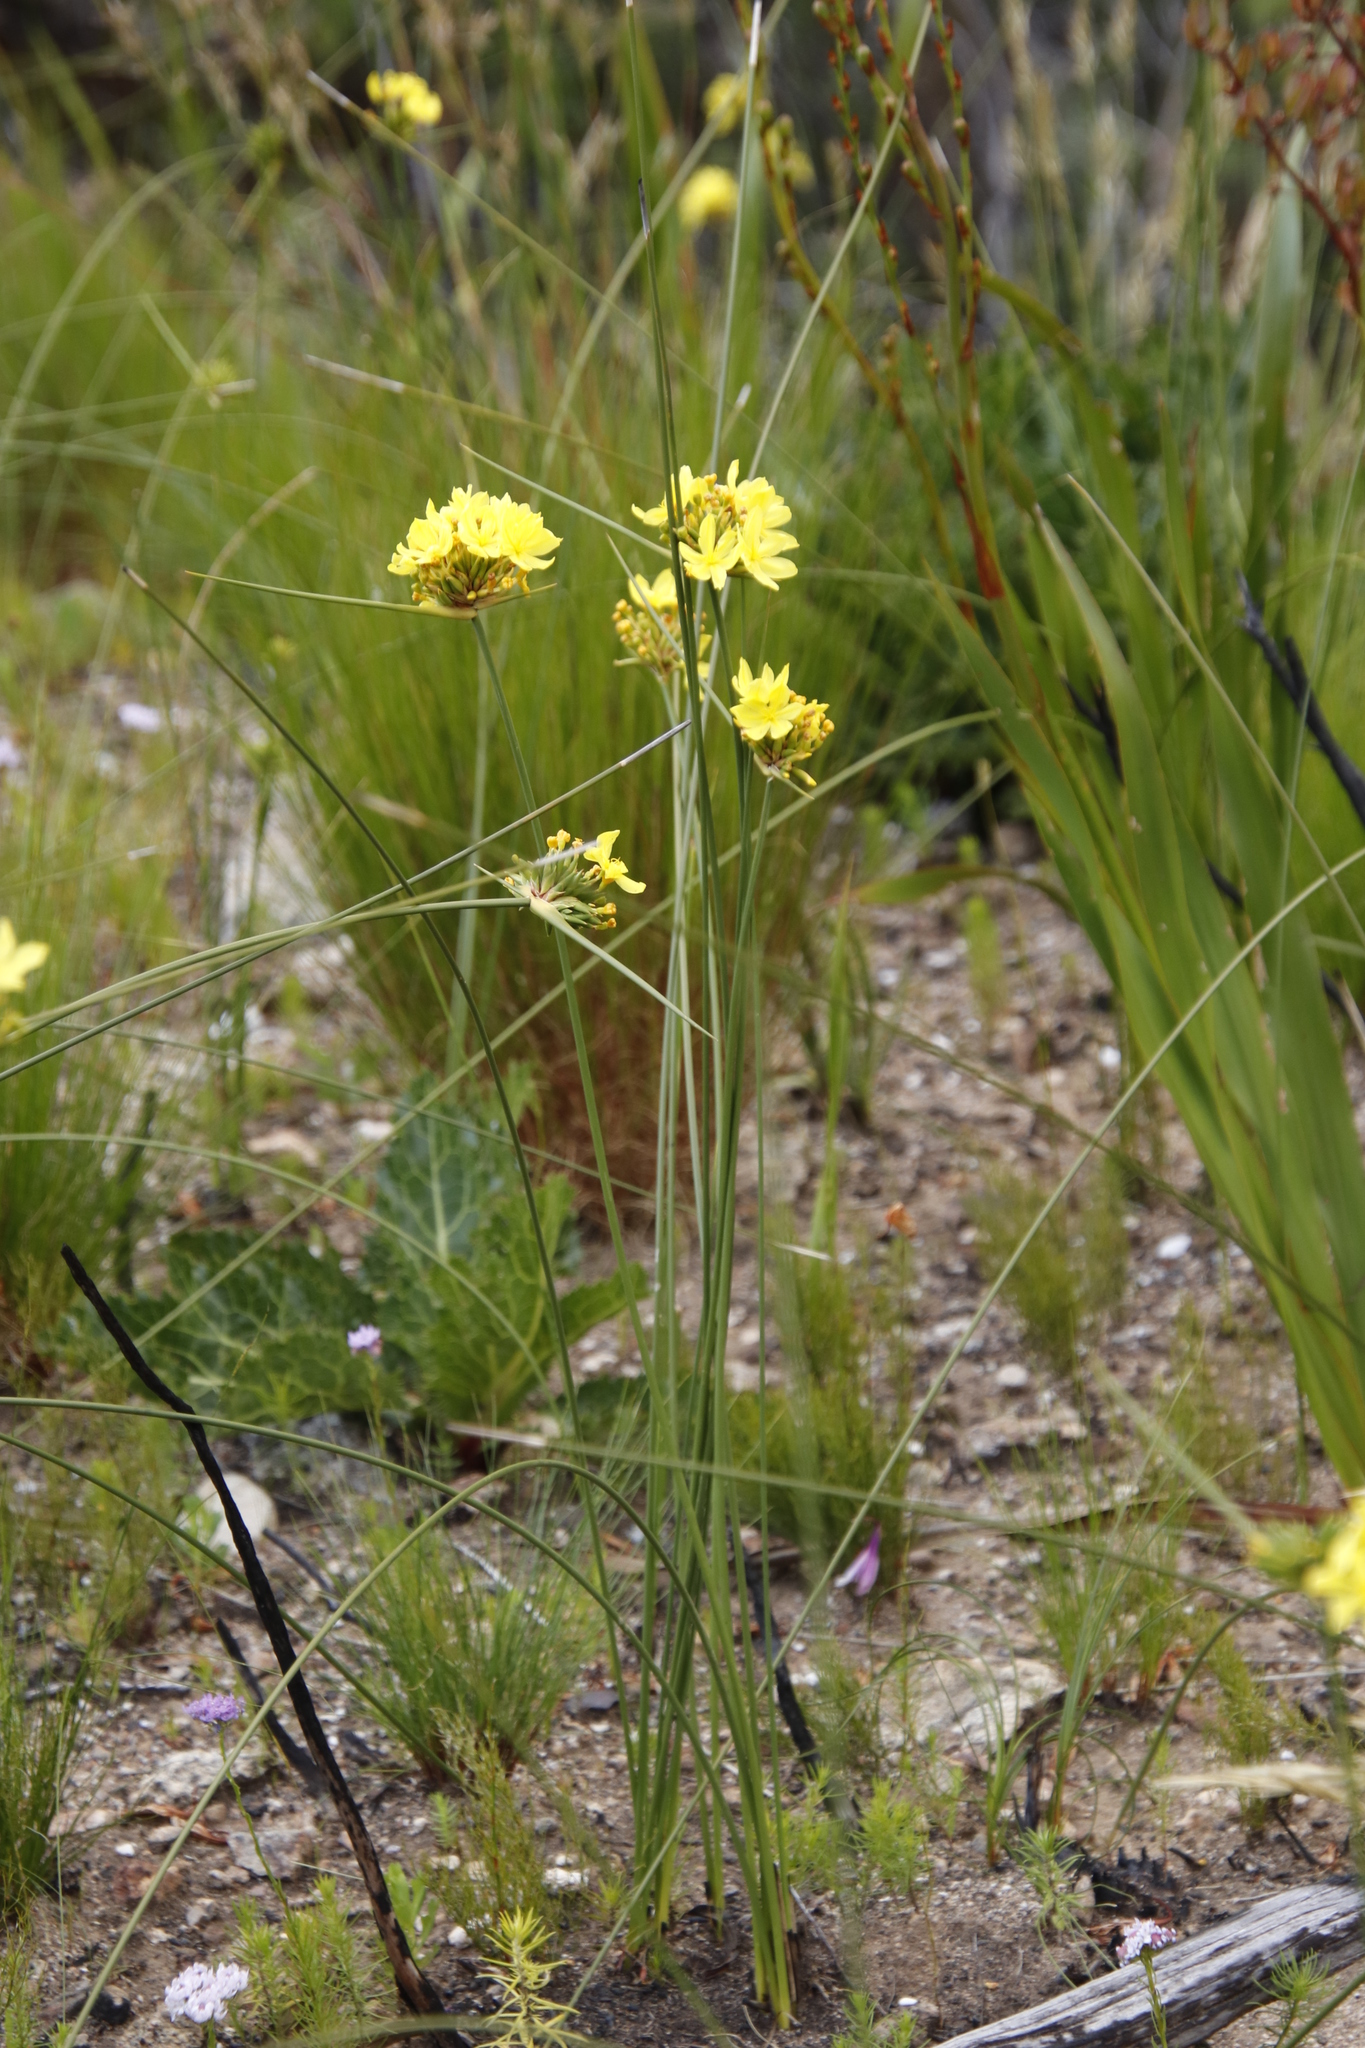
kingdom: Plantae
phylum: Tracheophyta
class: Liliopsida
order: Asparagales
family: Iridaceae
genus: Bobartia
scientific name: Bobartia indica
